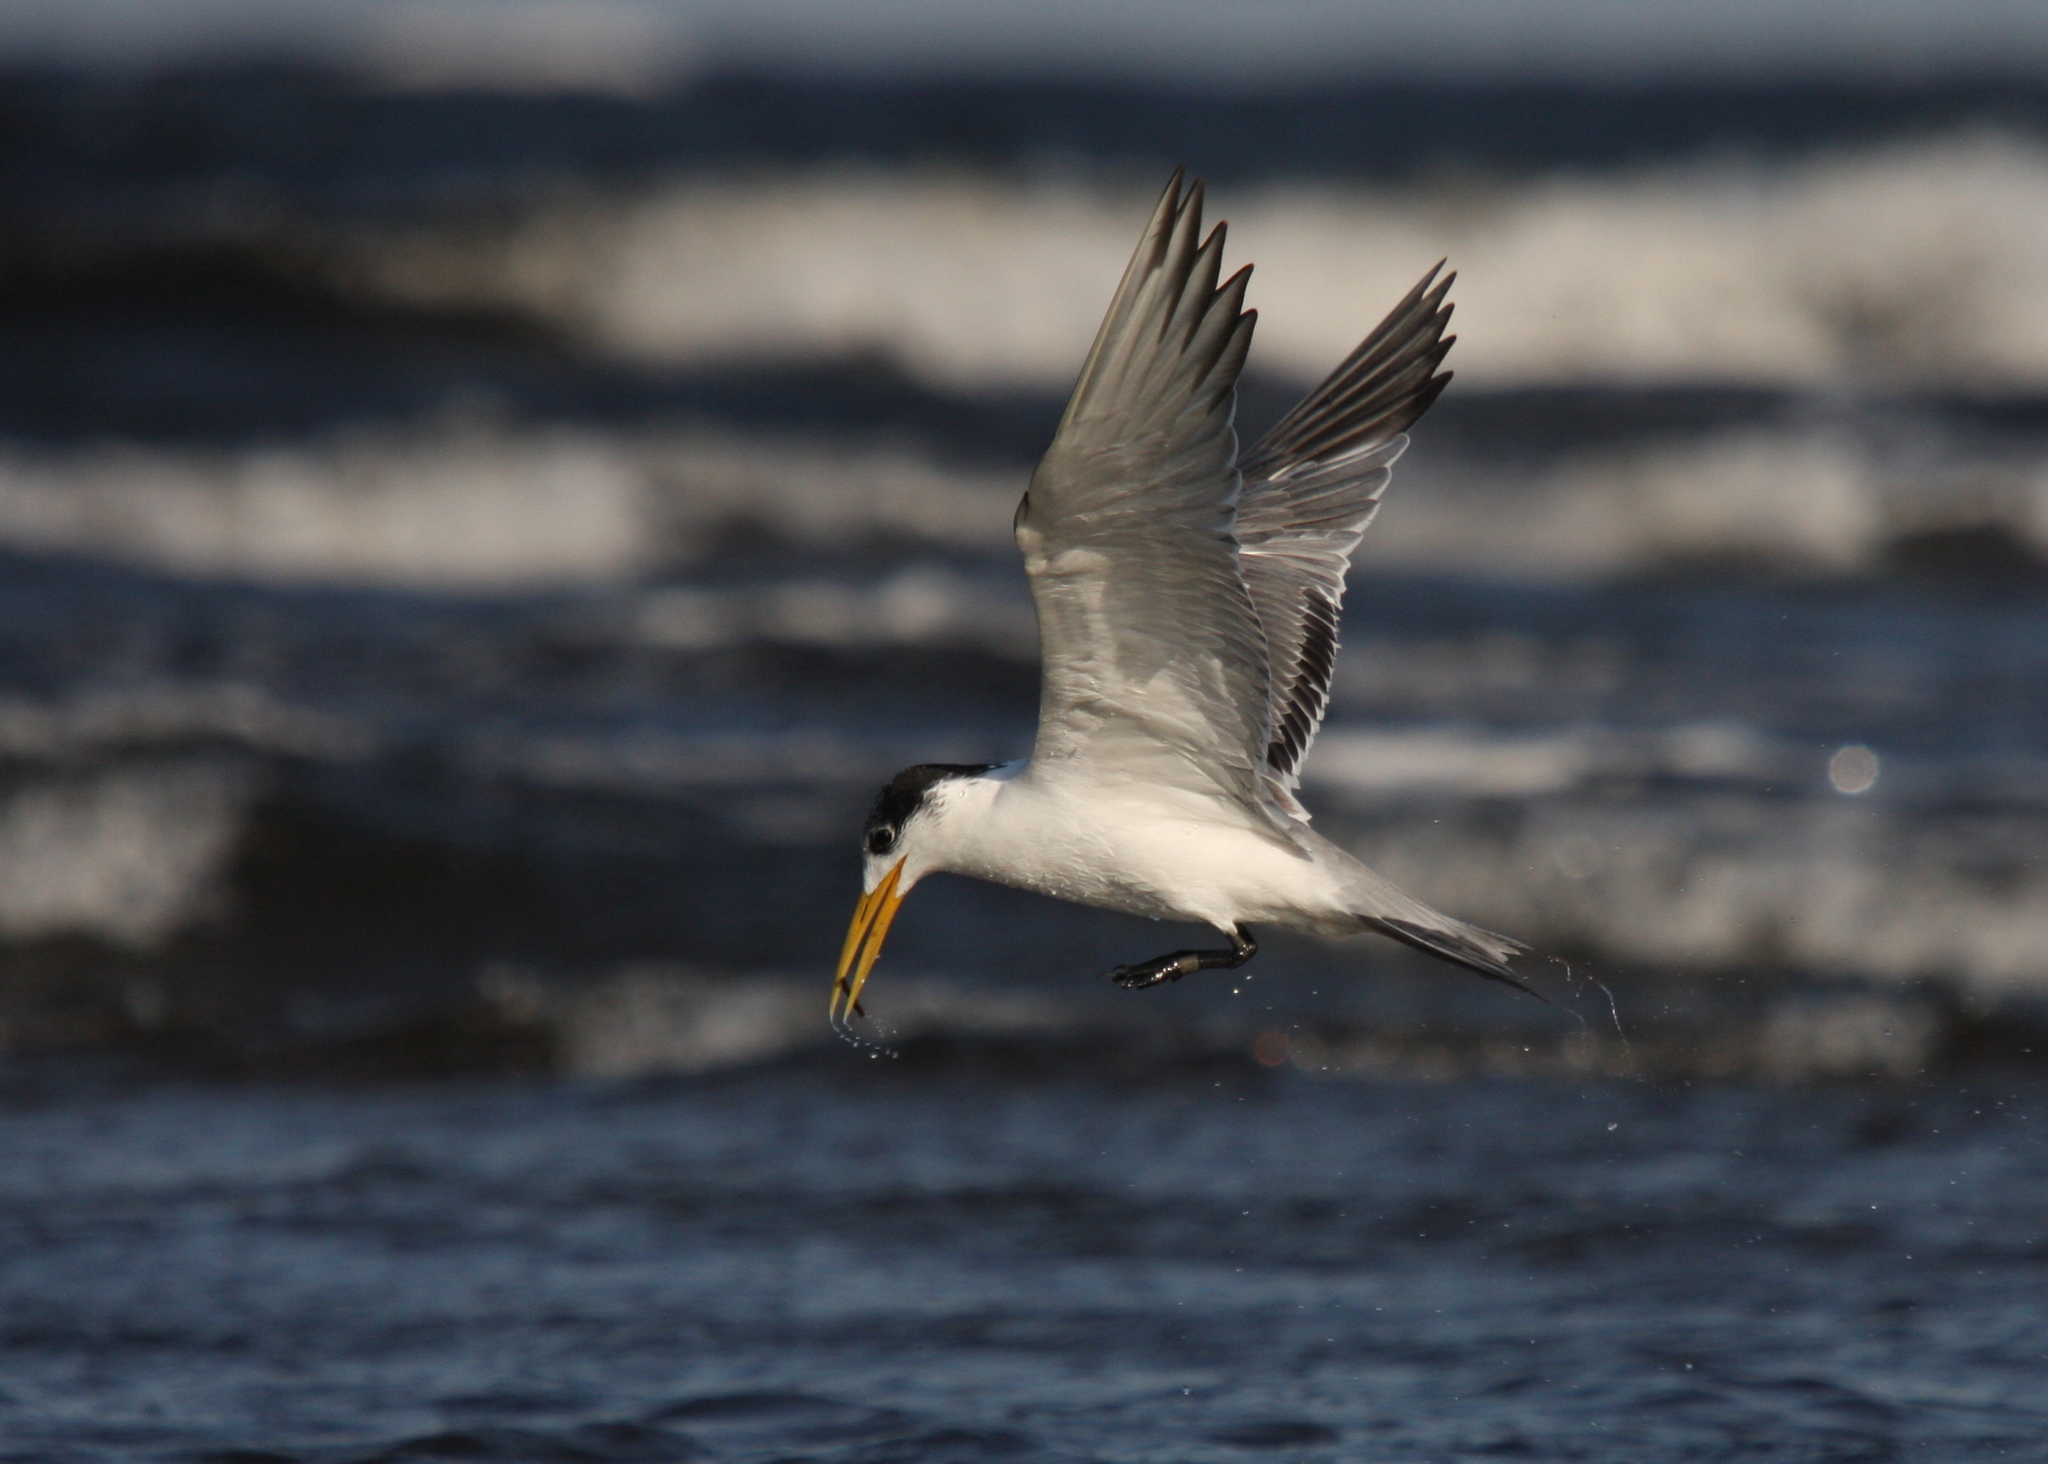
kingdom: Animalia
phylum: Chordata
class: Aves
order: Charadriiformes
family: Laridae
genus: Thalasseus
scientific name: Thalasseus bergii
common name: Greater crested tern
